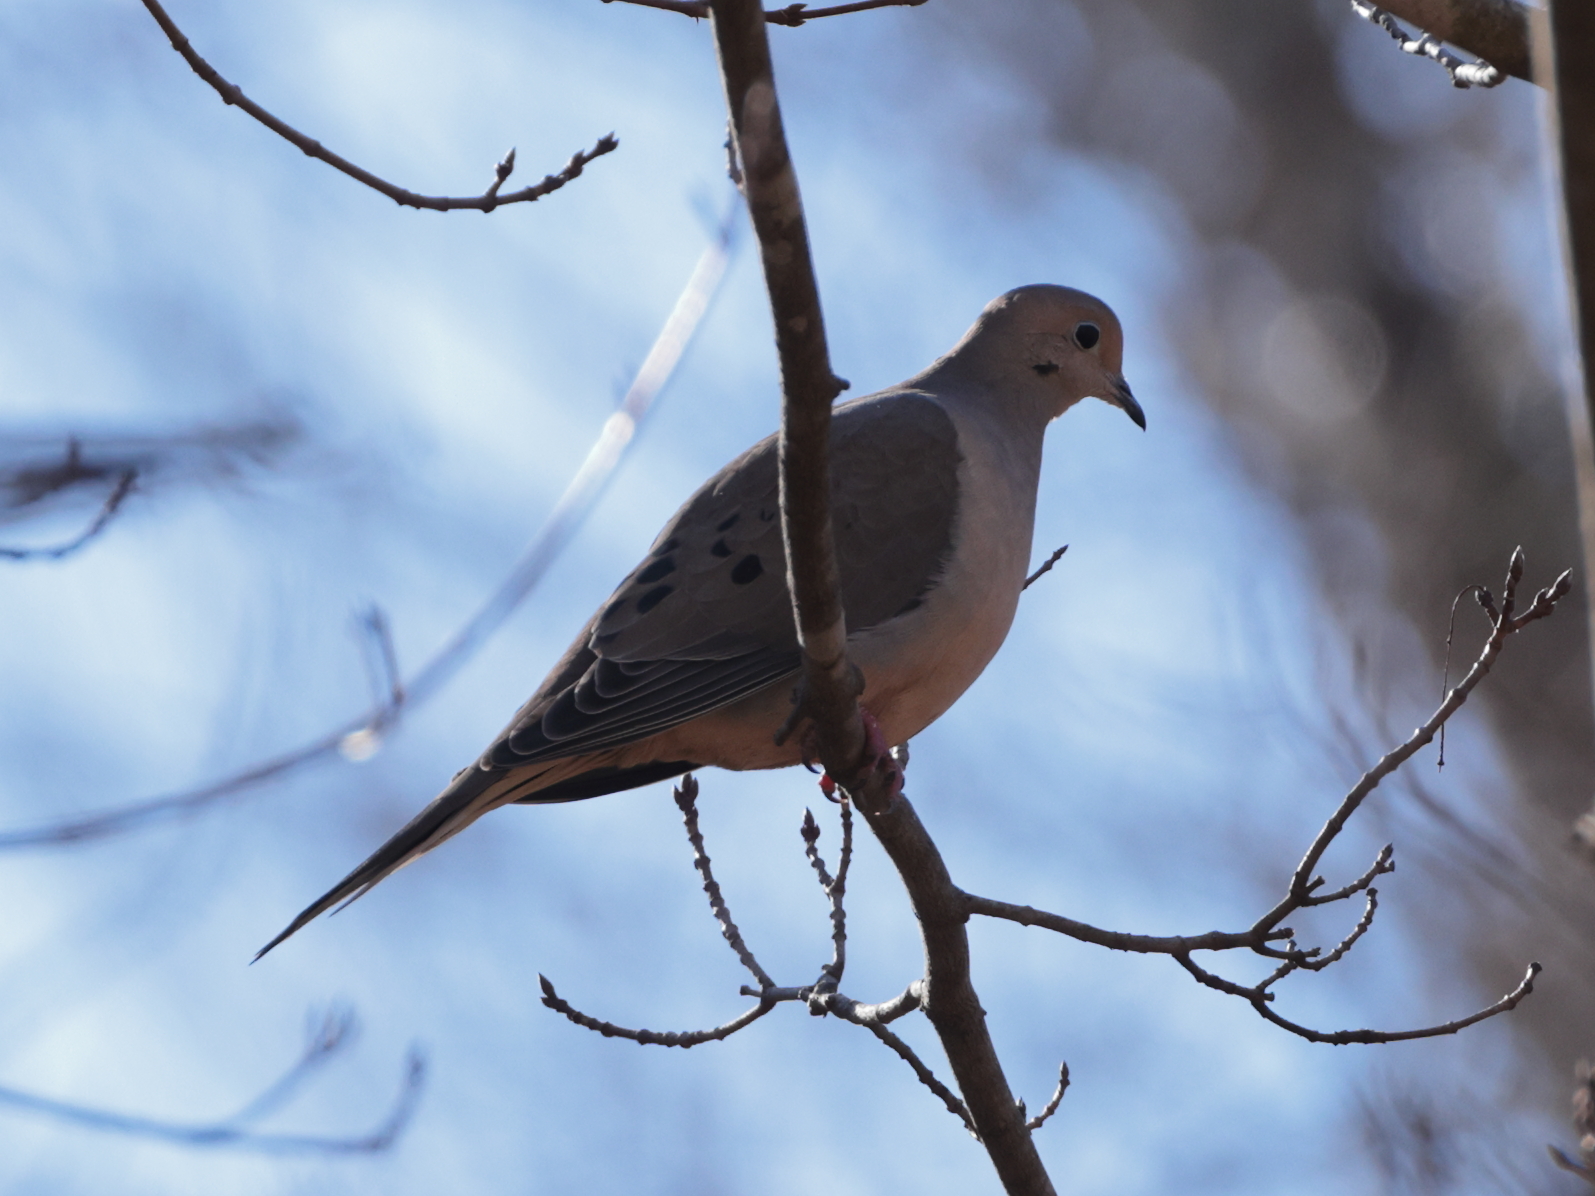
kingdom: Animalia
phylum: Chordata
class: Aves
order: Columbiformes
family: Columbidae
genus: Zenaida
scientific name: Zenaida macroura
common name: Mourning dove
